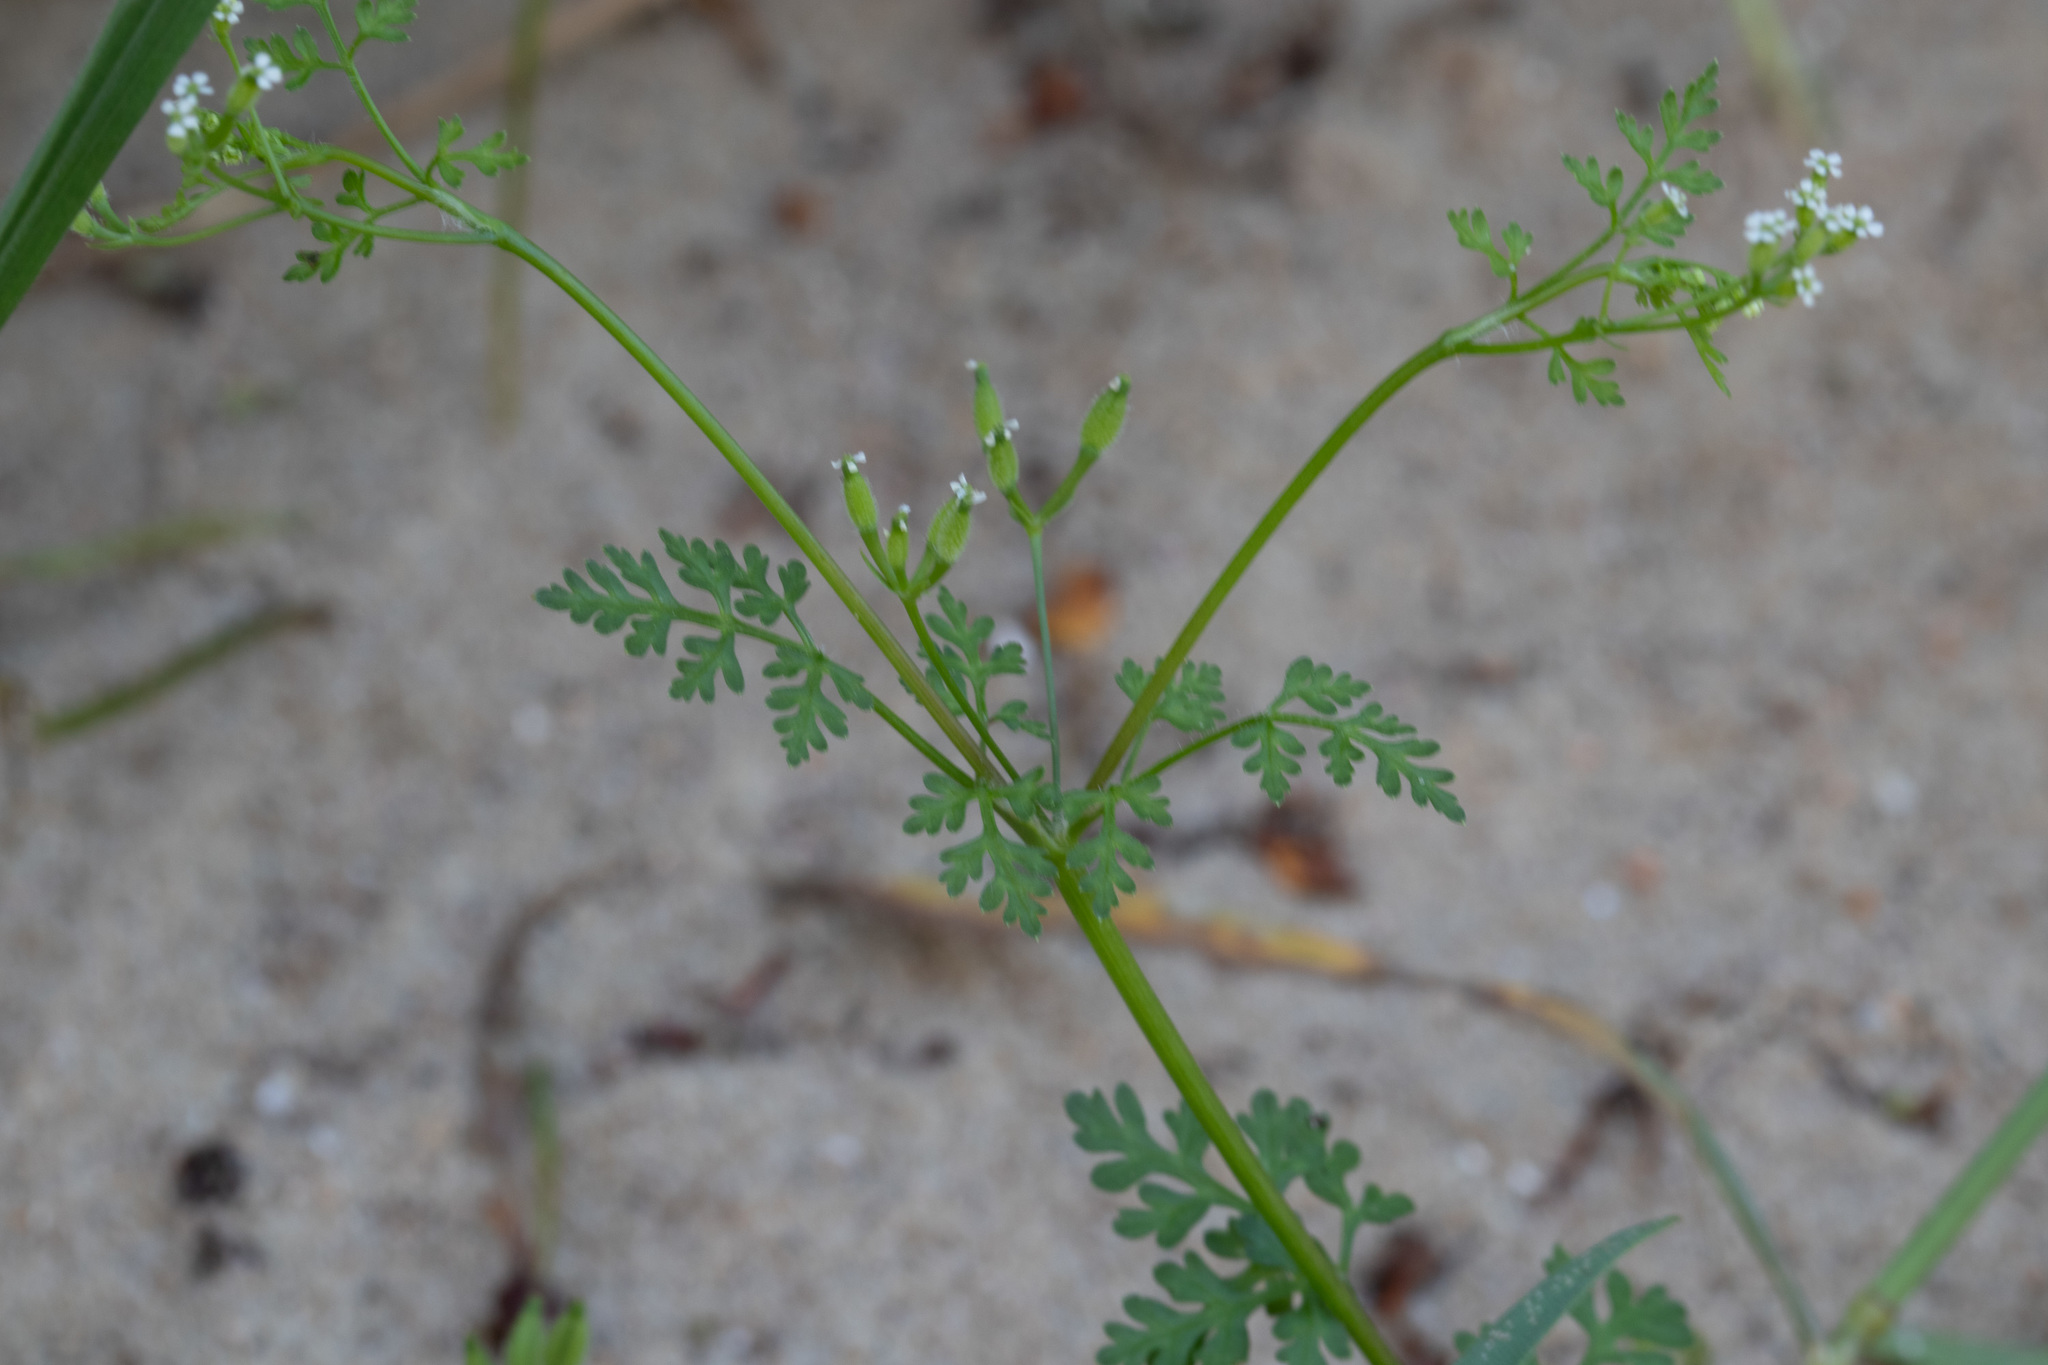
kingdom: Plantae
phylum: Tracheophyta
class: Magnoliopsida
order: Apiales
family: Apiaceae
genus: Anthriscus
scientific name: Anthriscus caucalis
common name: Bur chervil
